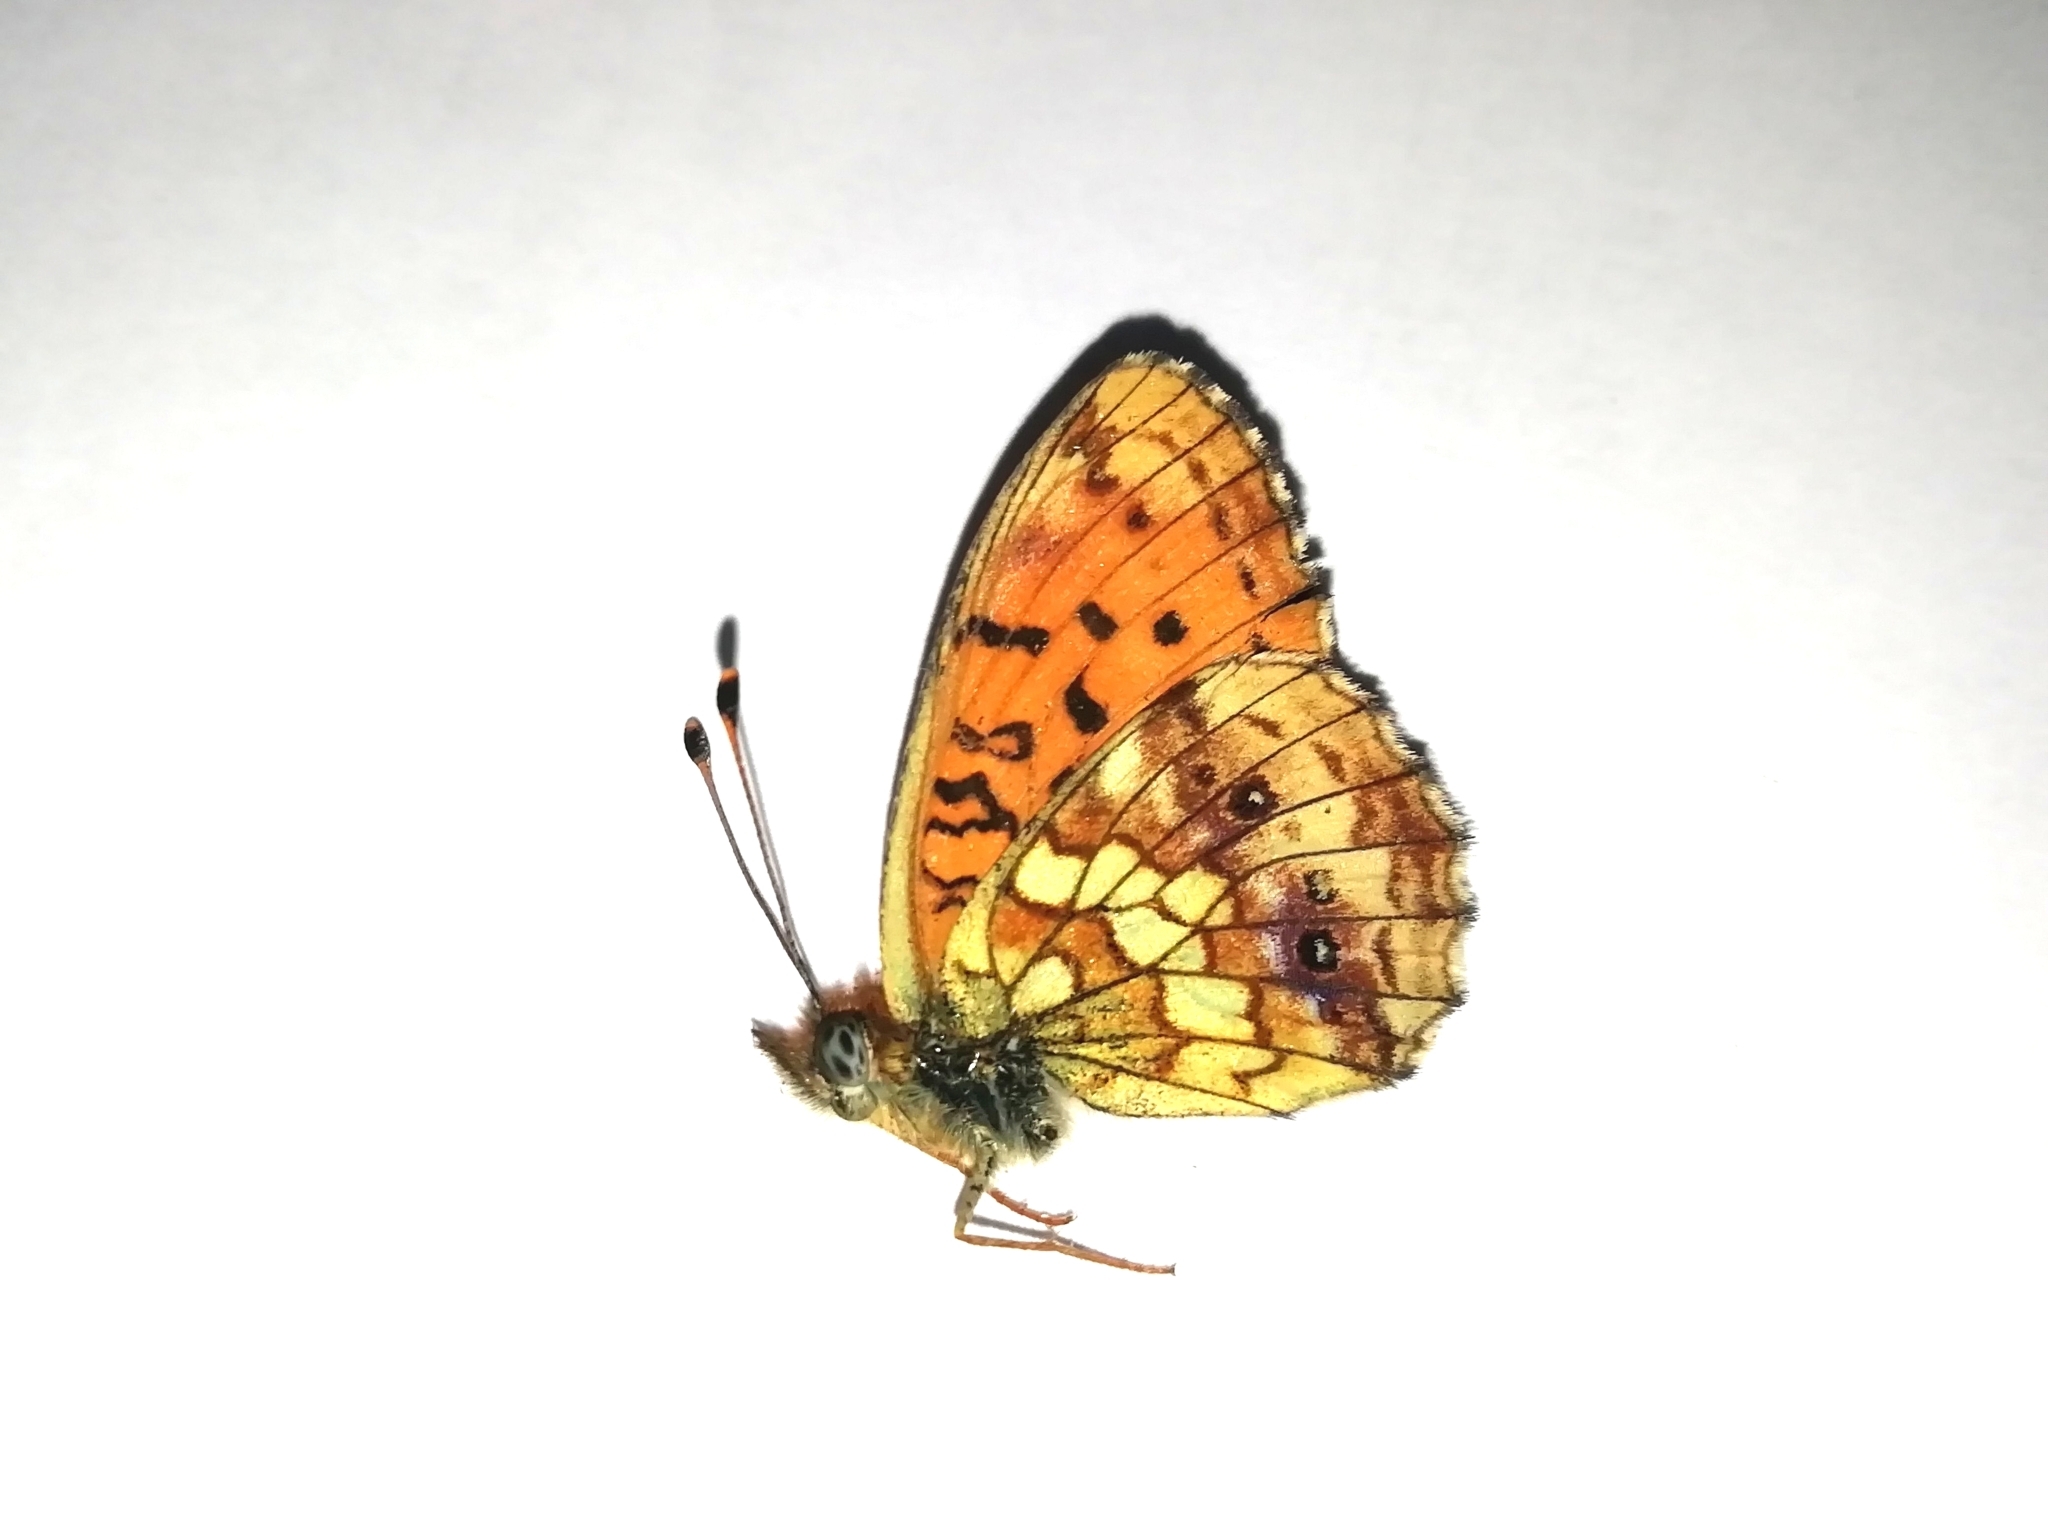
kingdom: Animalia
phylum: Arthropoda
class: Insecta
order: Lepidoptera
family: Nymphalidae
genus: Brenthis
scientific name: Brenthis ino
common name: Lesser marbled fritillary
